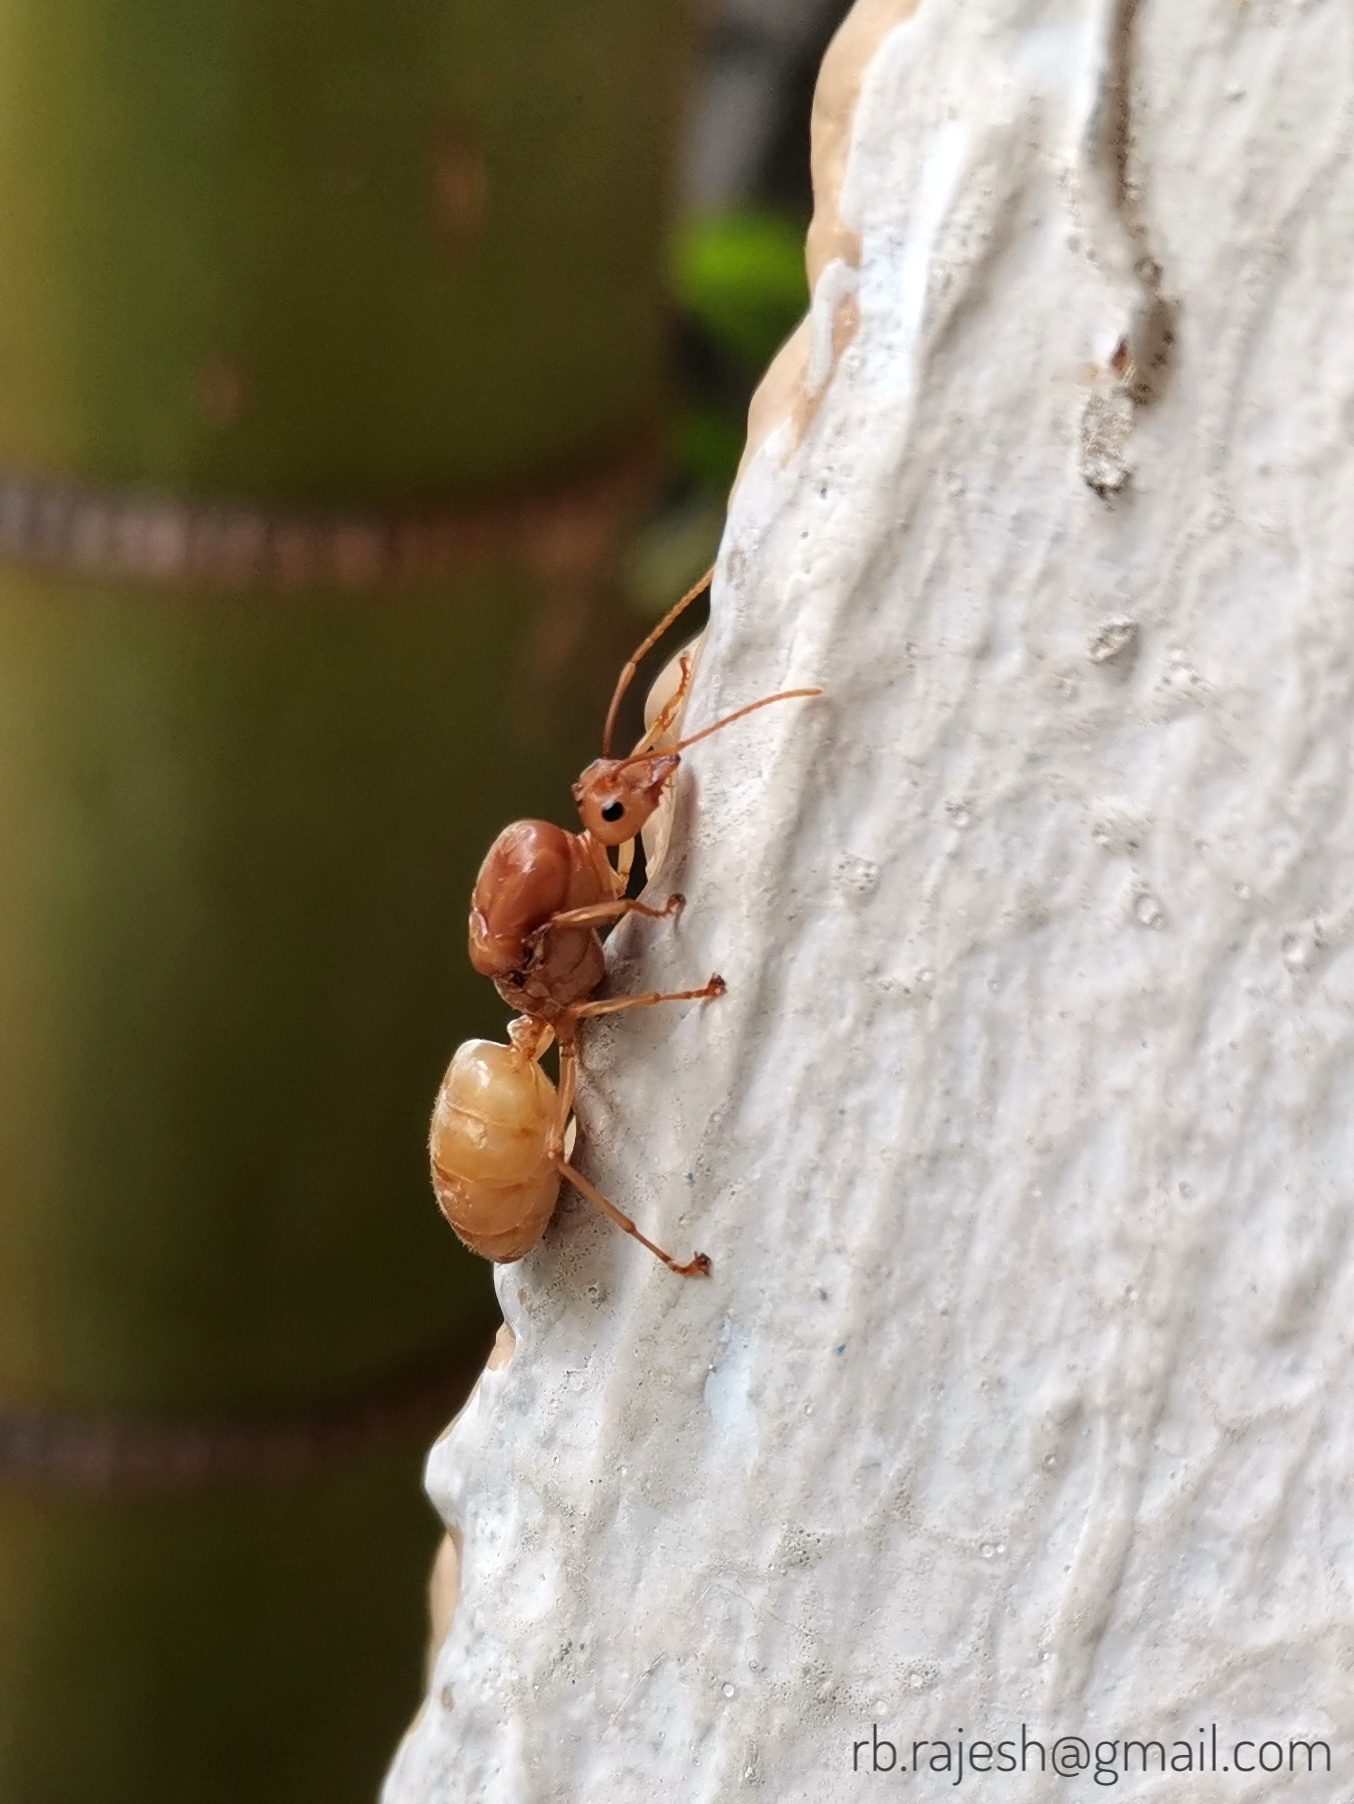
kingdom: Animalia
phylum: Arthropoda
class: Insecta
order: Hymenoptera
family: Formicidae
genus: Oecophylla
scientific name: Oecophylla smaragdina
